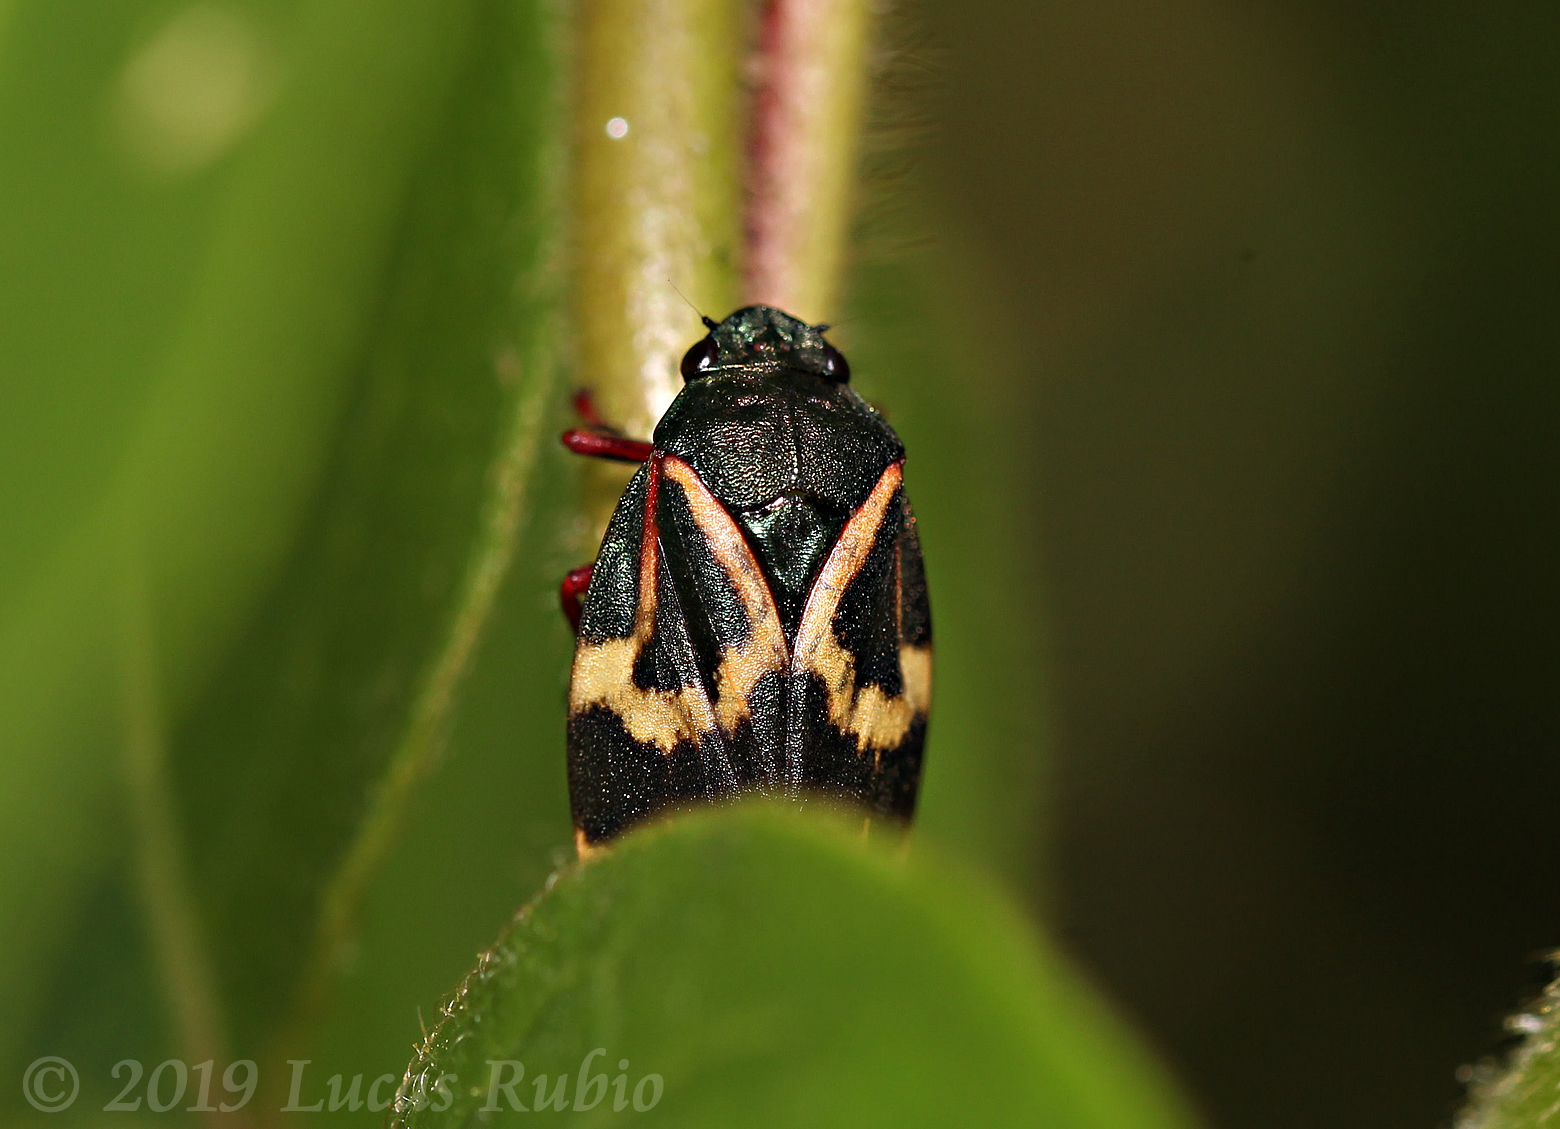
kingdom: Animalia
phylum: Arthropoda
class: Insecta
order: Hemiptera
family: Cercopidae
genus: Deois
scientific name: Deois flexuosa
